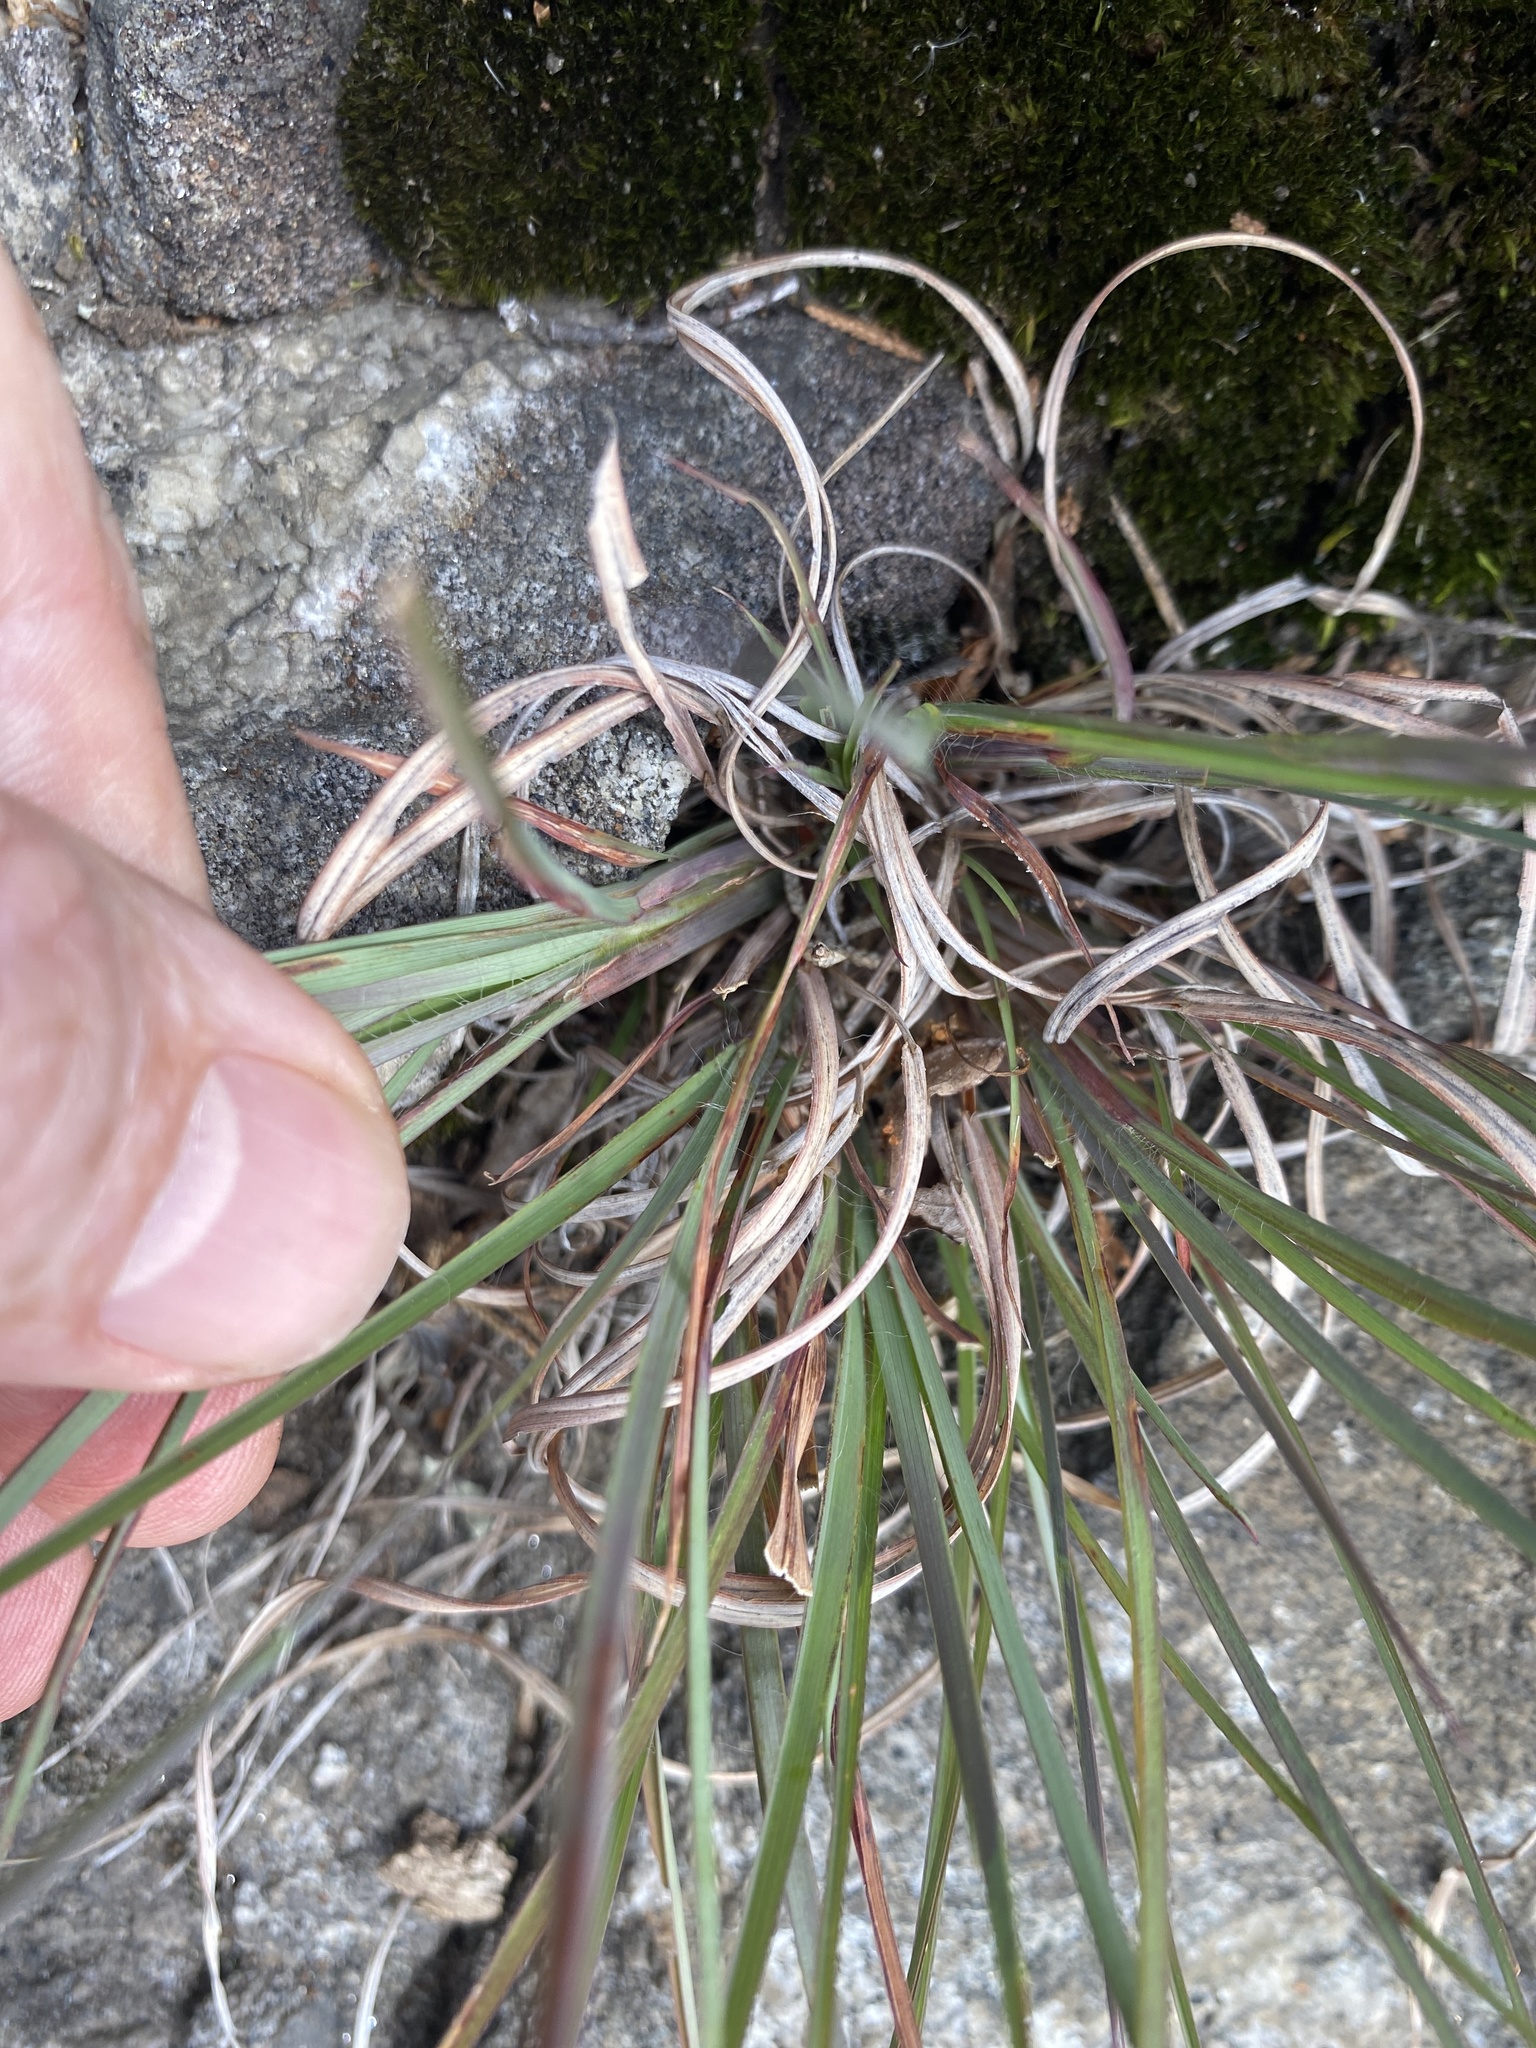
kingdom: Plantae
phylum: Tracheophyta
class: Liliopsida
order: Poales
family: Poaceae
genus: Schizachyrium
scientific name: Schizachyrium scoparium
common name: Little bluestem
